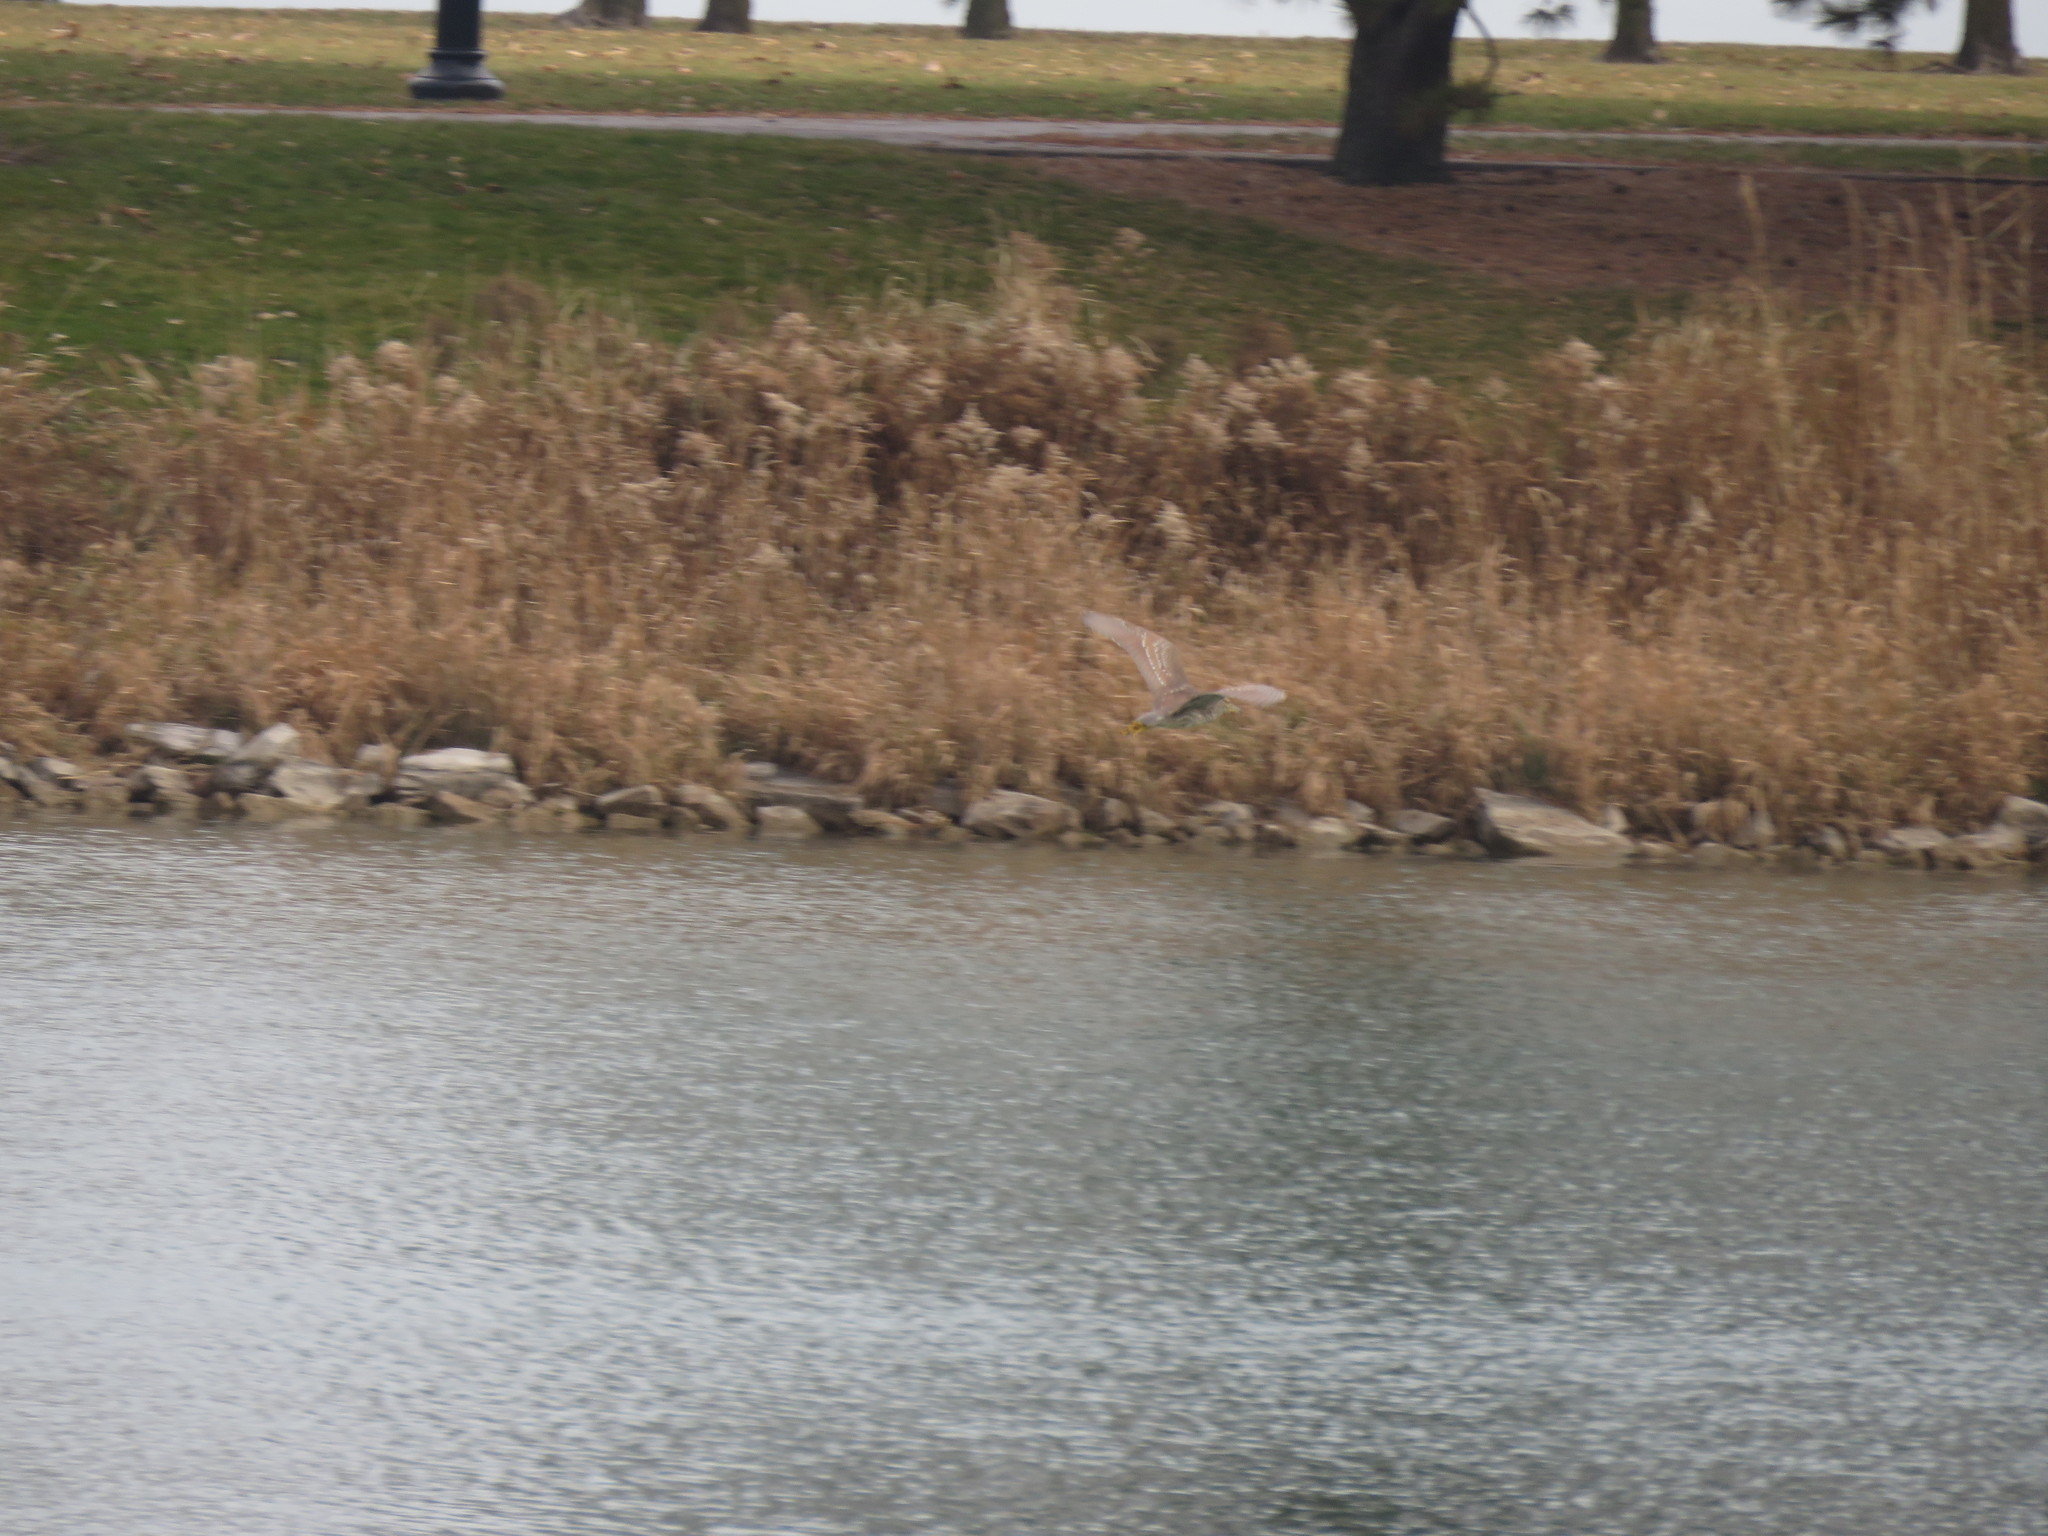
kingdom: Animalia
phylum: Chordata
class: Aves
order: Pelecaniformes
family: Ardeidae
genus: Nycticorax
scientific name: Nycticorax nycticorax
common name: Black-crowned night heron
